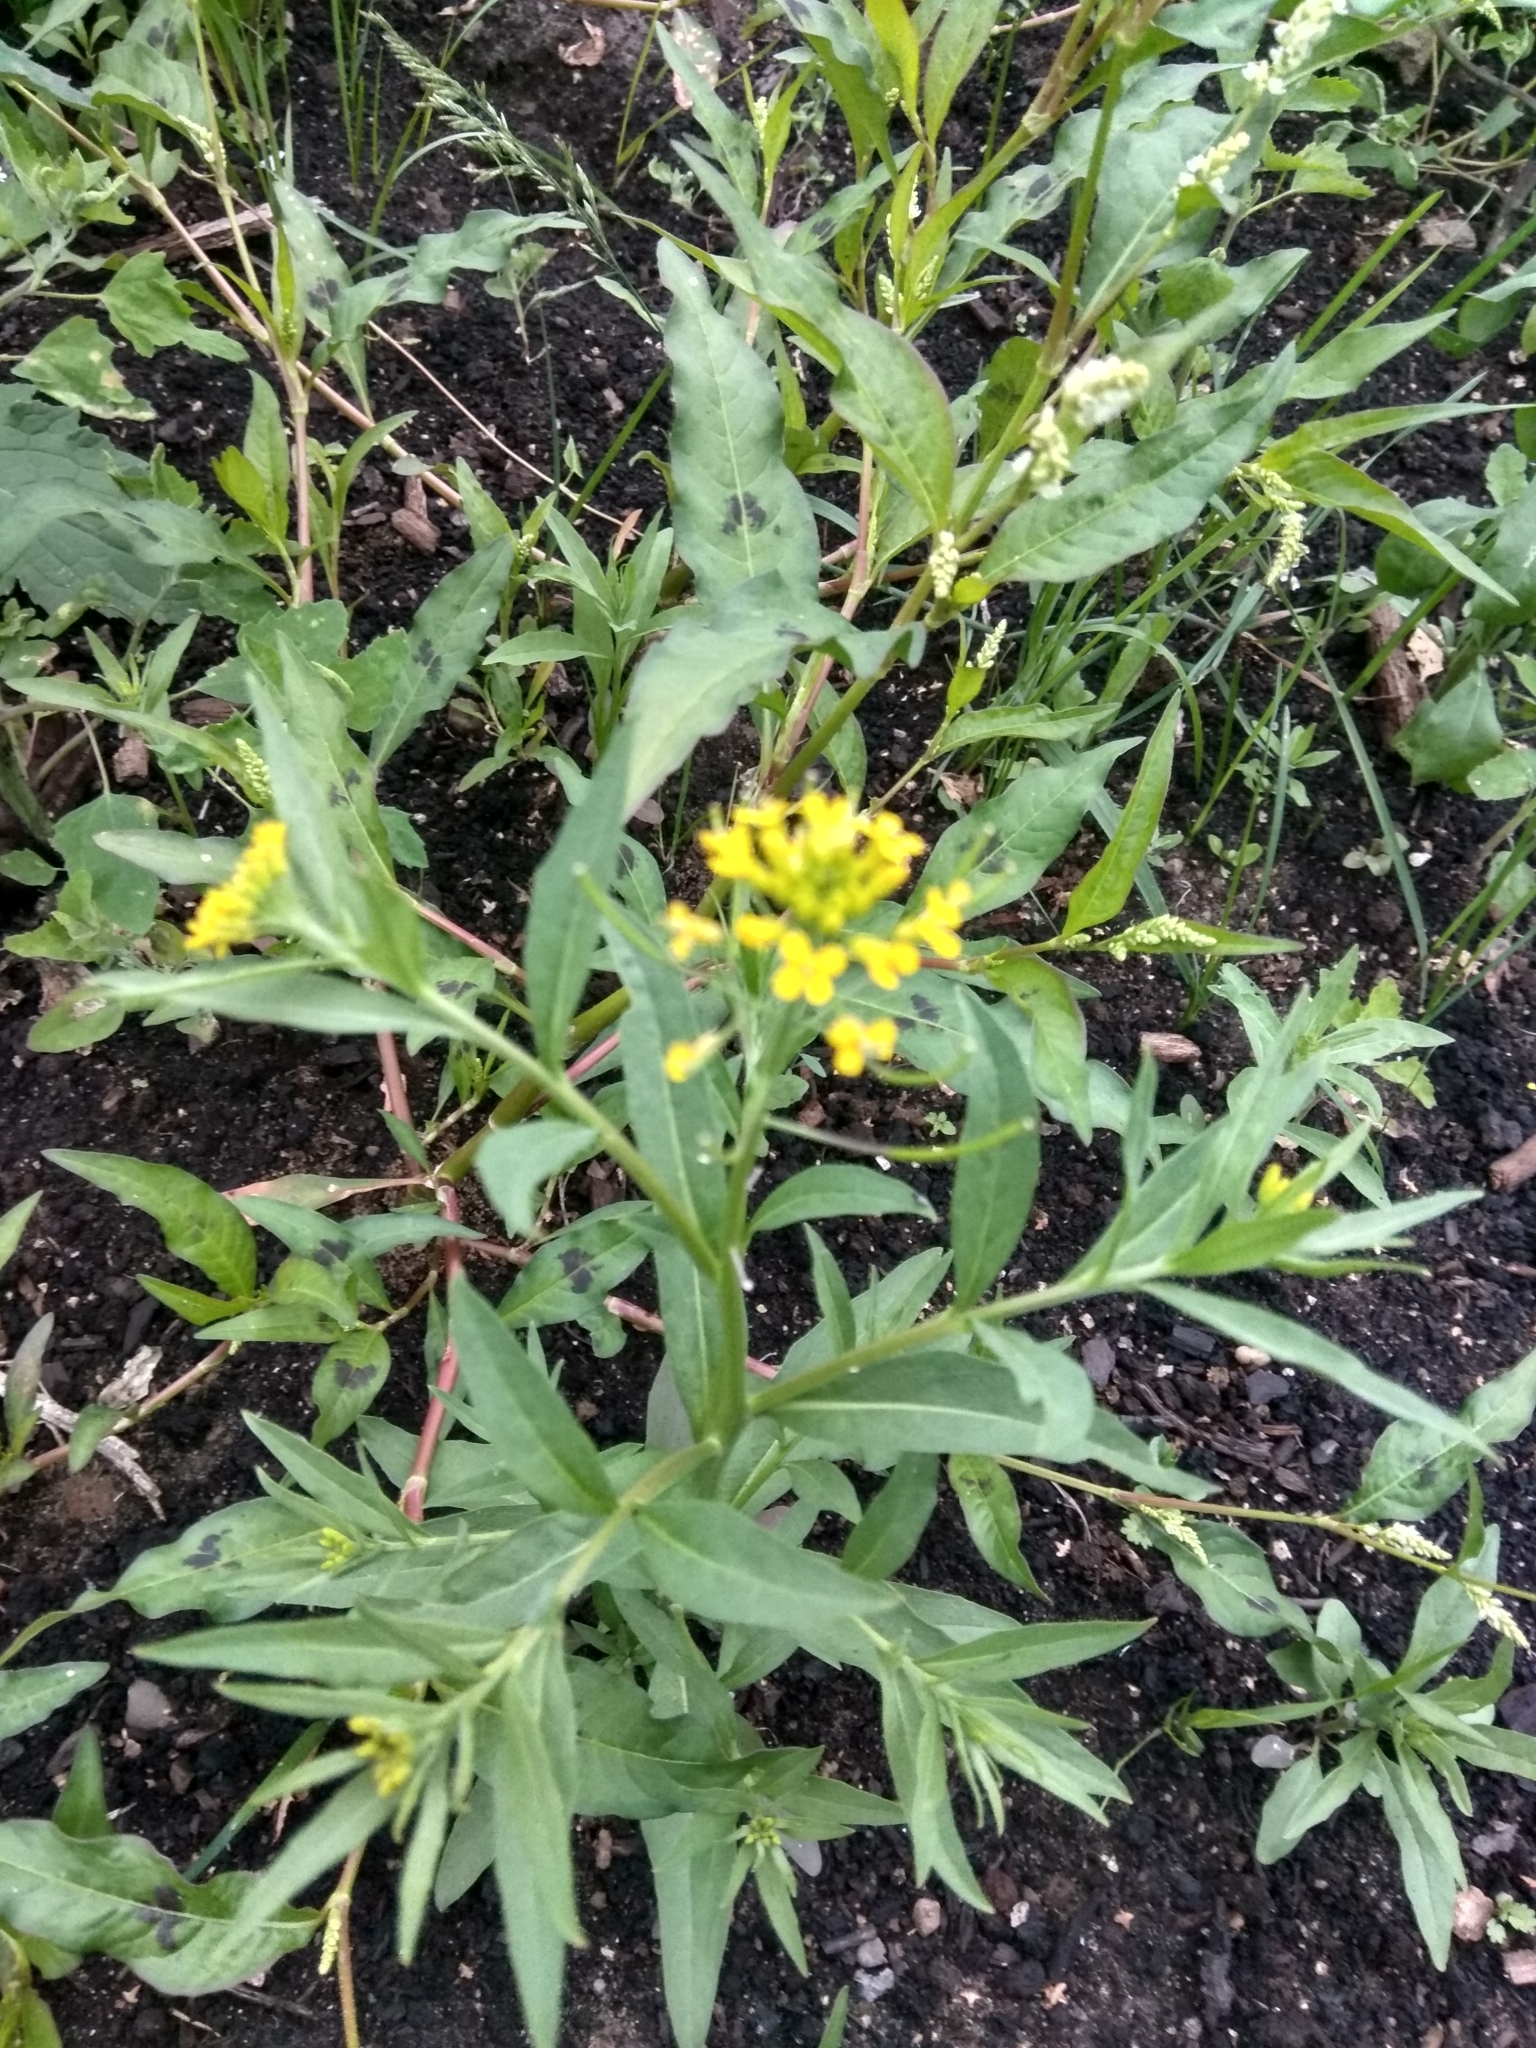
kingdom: Plantae
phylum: Tracheophyta
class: Magnoliopsida
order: Brassicales
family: Brassicaceae
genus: Erysimum
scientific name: Erysimum cheiranthoides
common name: Treacle mustard
